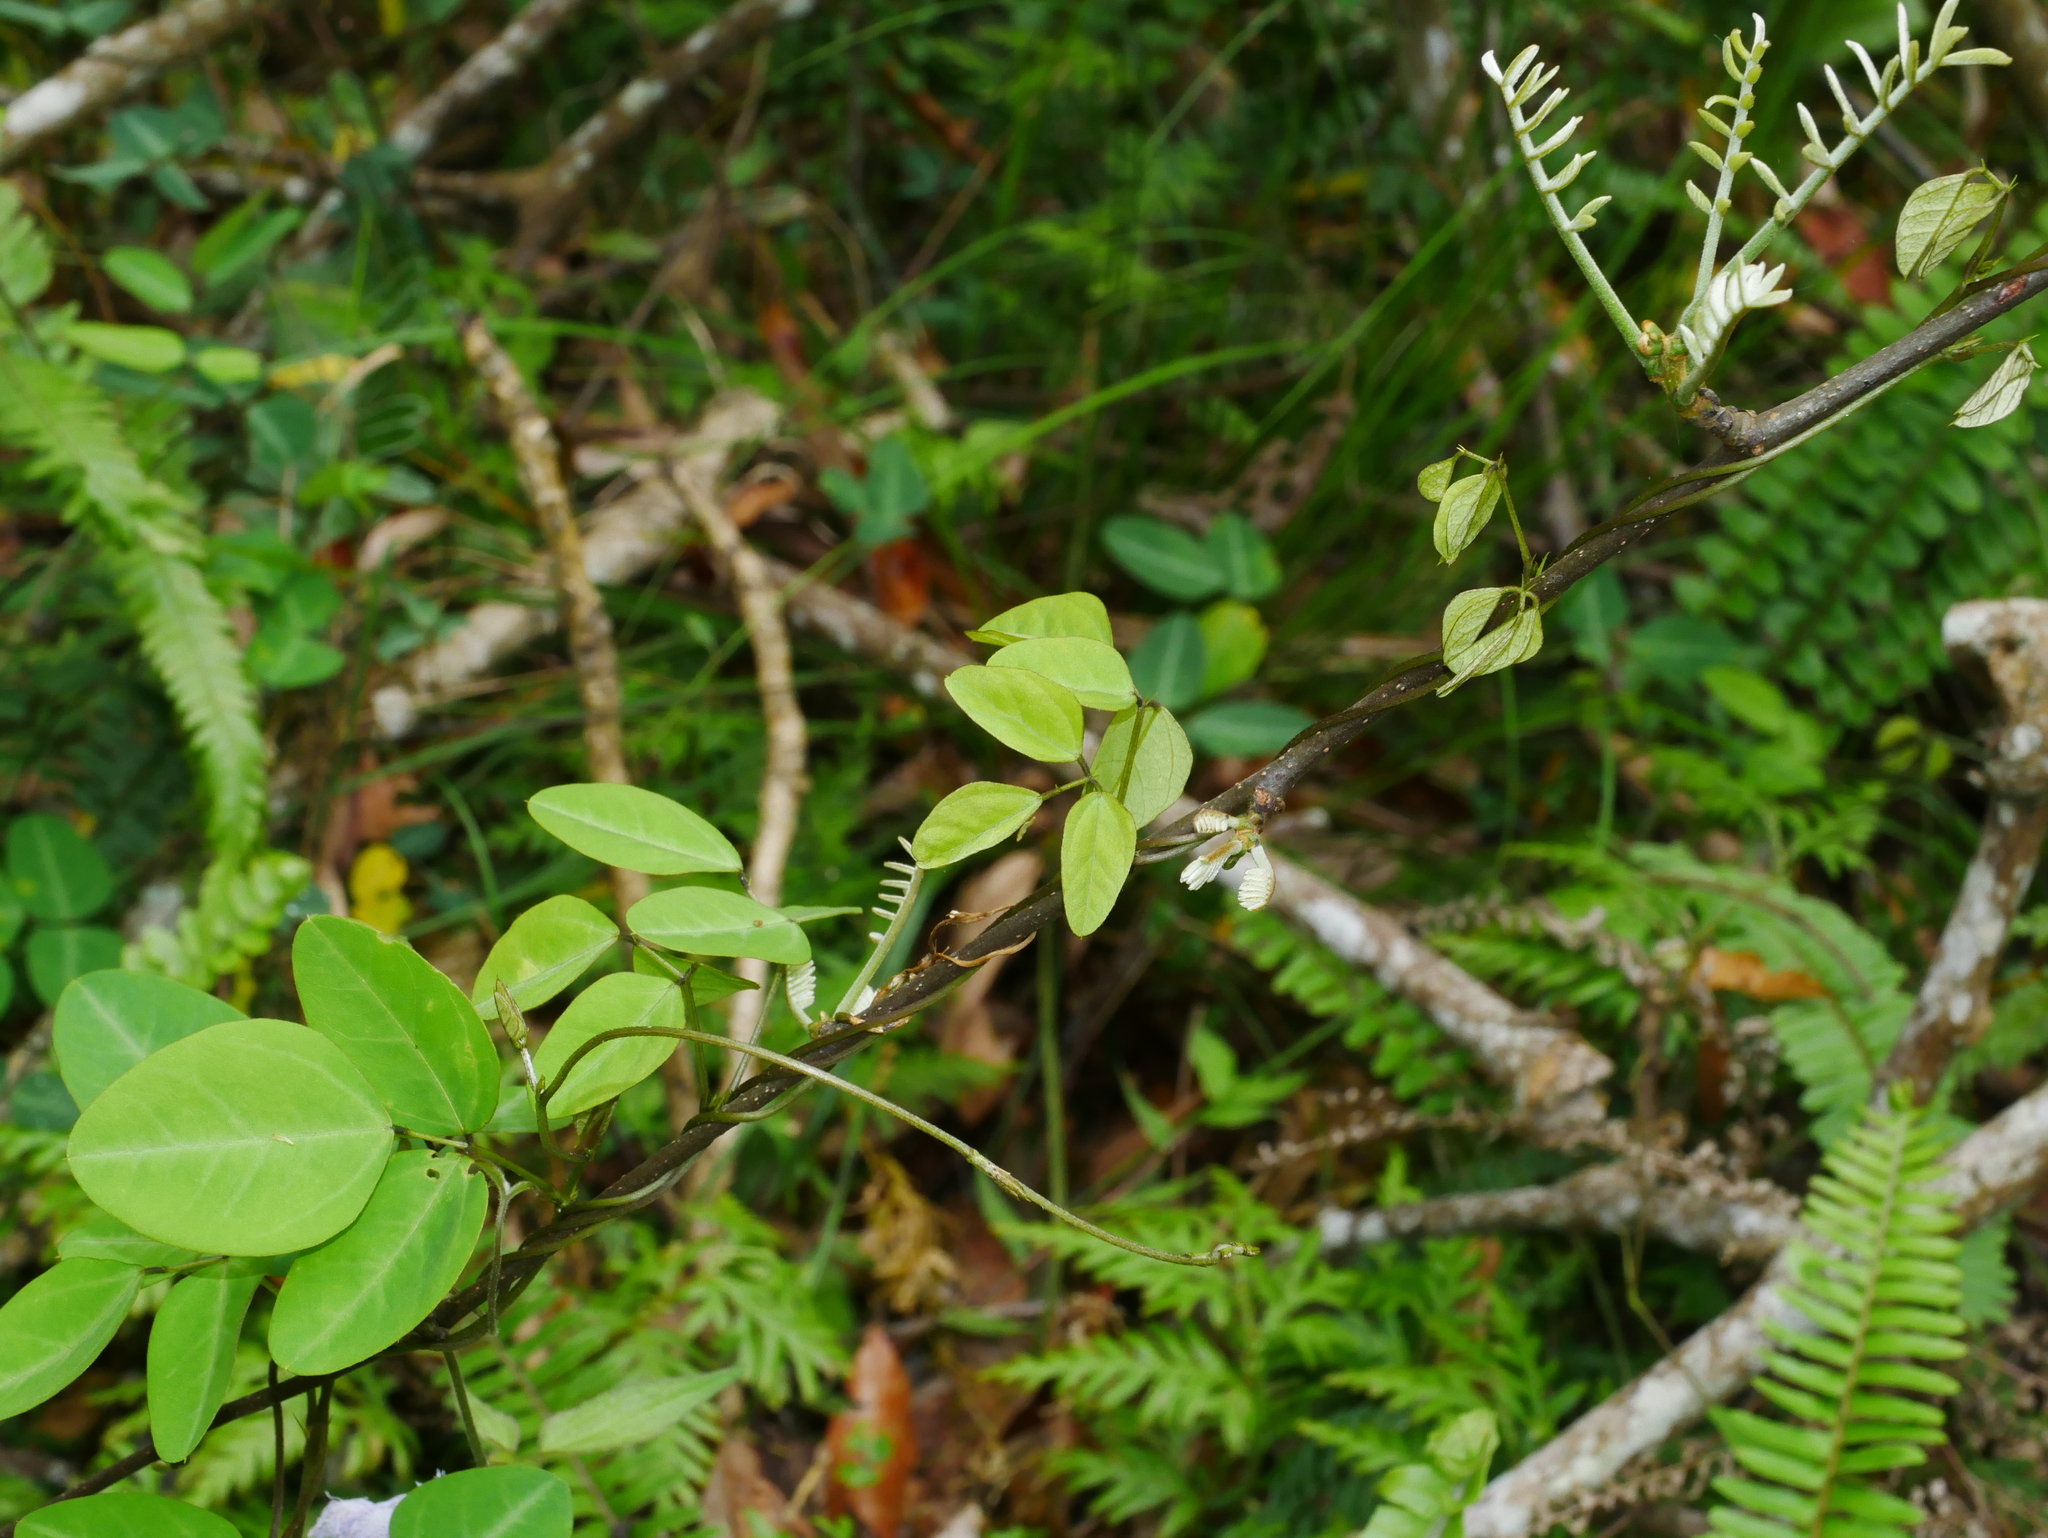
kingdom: Plantae
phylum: Tracheophyta
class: Magnoliopsida
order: Fabales
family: Fabaceae
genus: Dumasia
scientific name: Dumasia villosa
